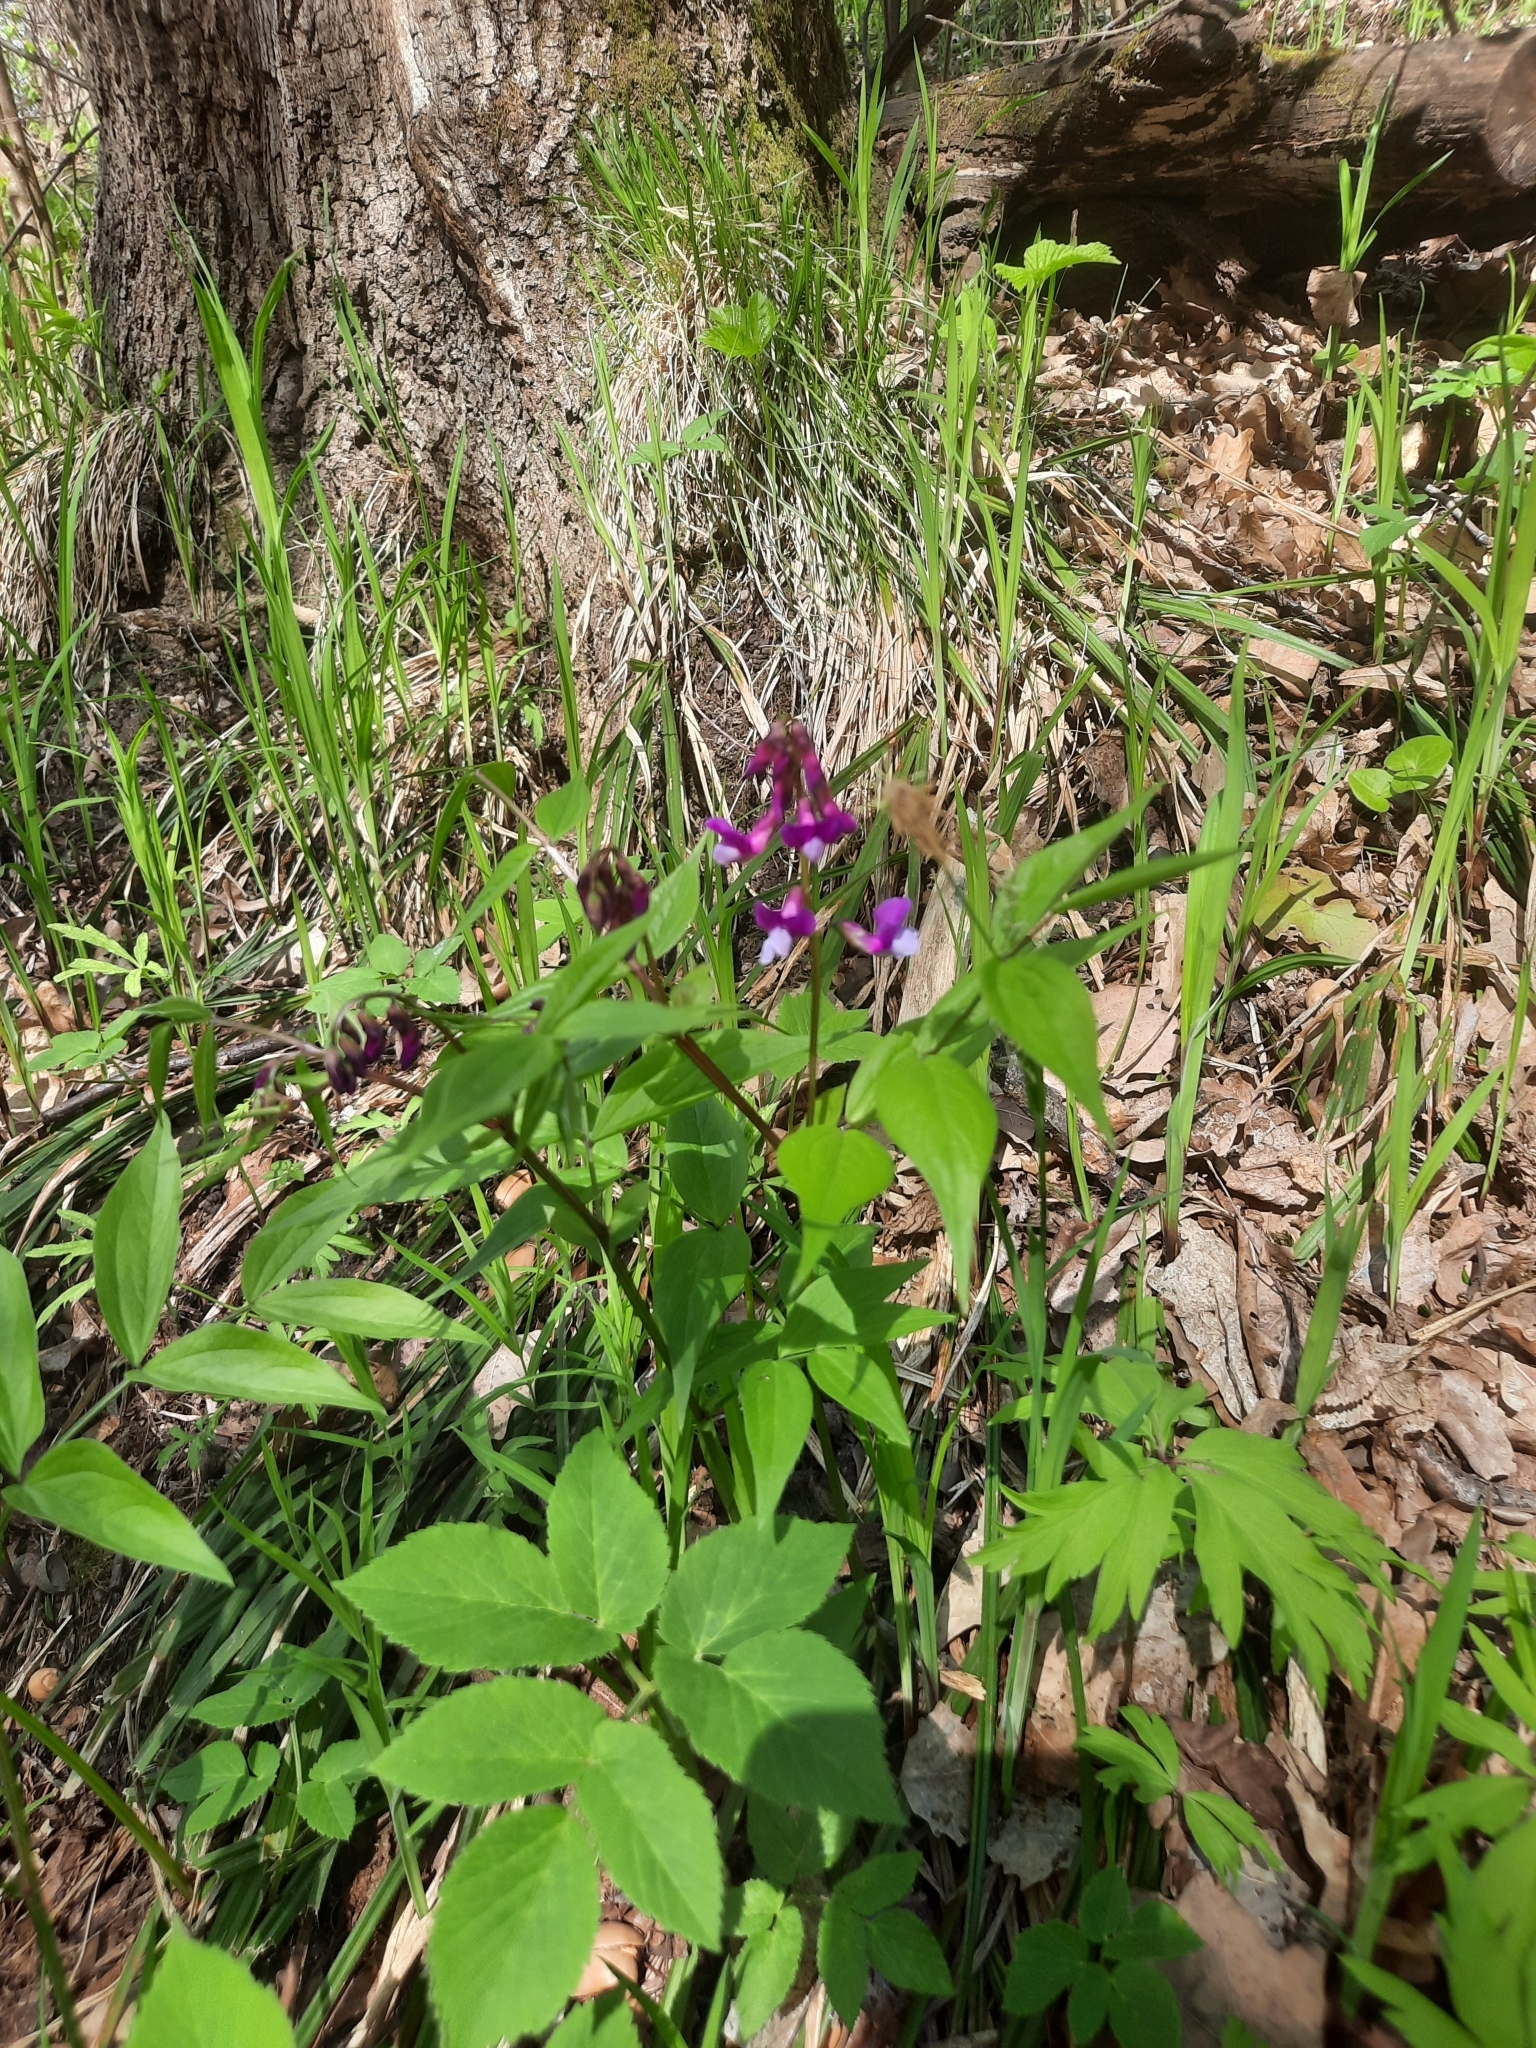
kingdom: Plantae
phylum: Tracheophyta
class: Magnoliopsida
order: Fabales
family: Fabaceae
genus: Lathyrus
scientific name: Lathyrus vernus
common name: Spring pea
